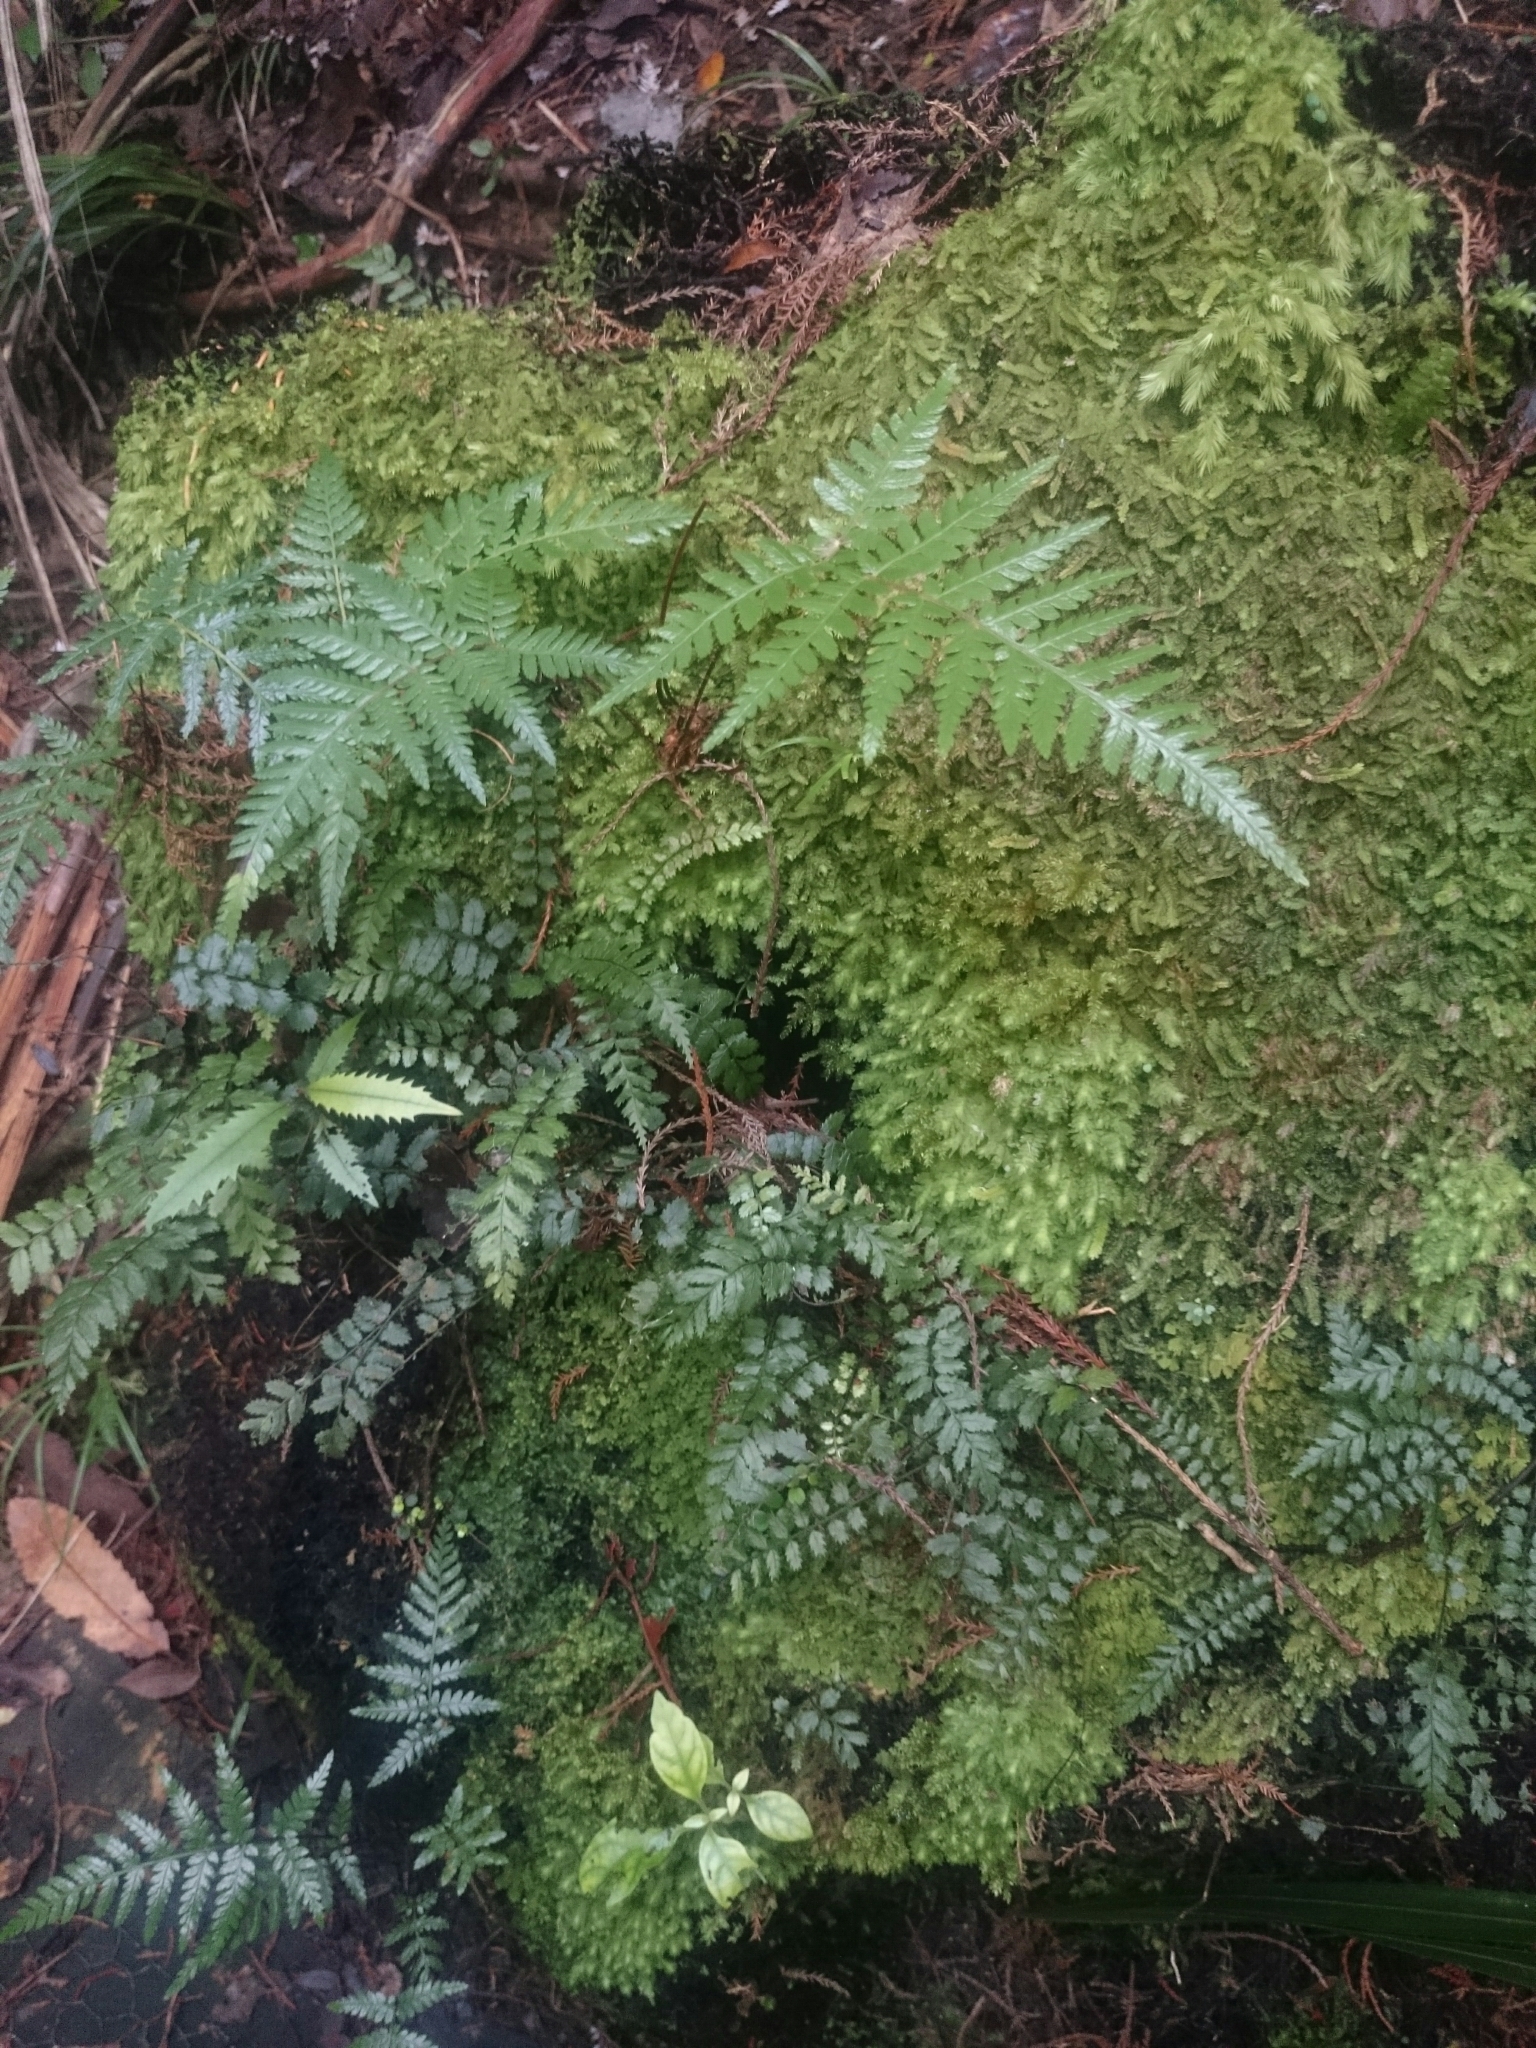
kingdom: Plantae
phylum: Tracheophyta
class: Polypodiopsida
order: Polypodiales
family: Blechnaceae
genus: Icarus
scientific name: Icarus filiformis
